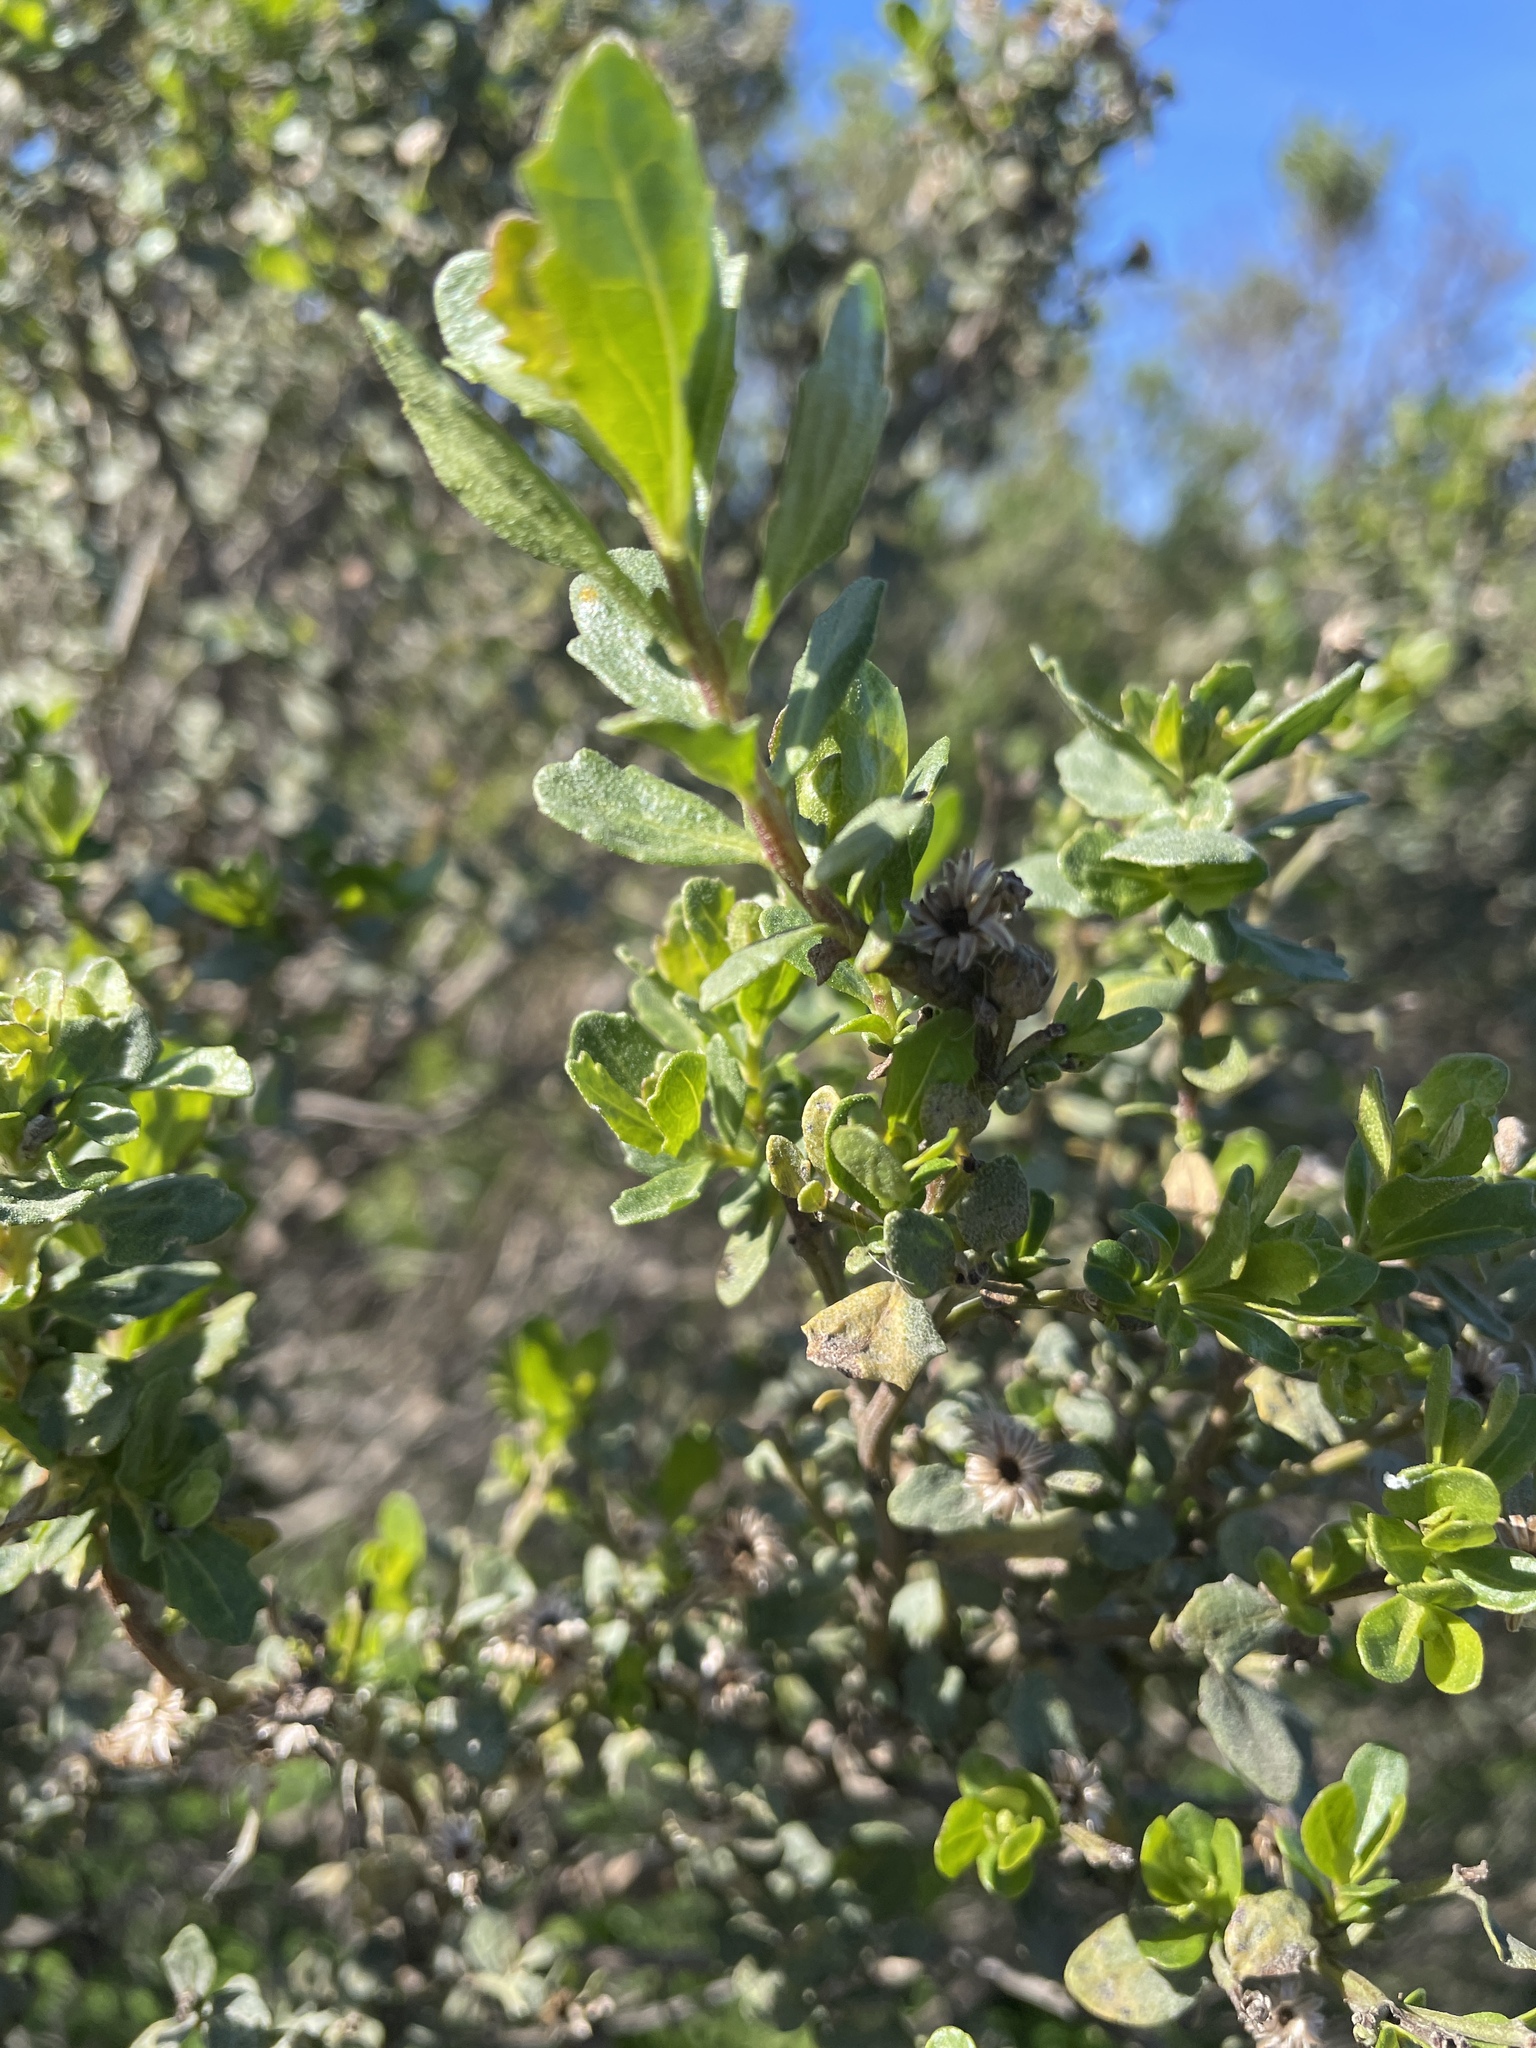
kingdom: Plantae
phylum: Tracheophyta
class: Magnoliopsida
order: Asterales
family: Asteraceae
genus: Baccharis
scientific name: Baccharis pilularis
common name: Coyotebrush
